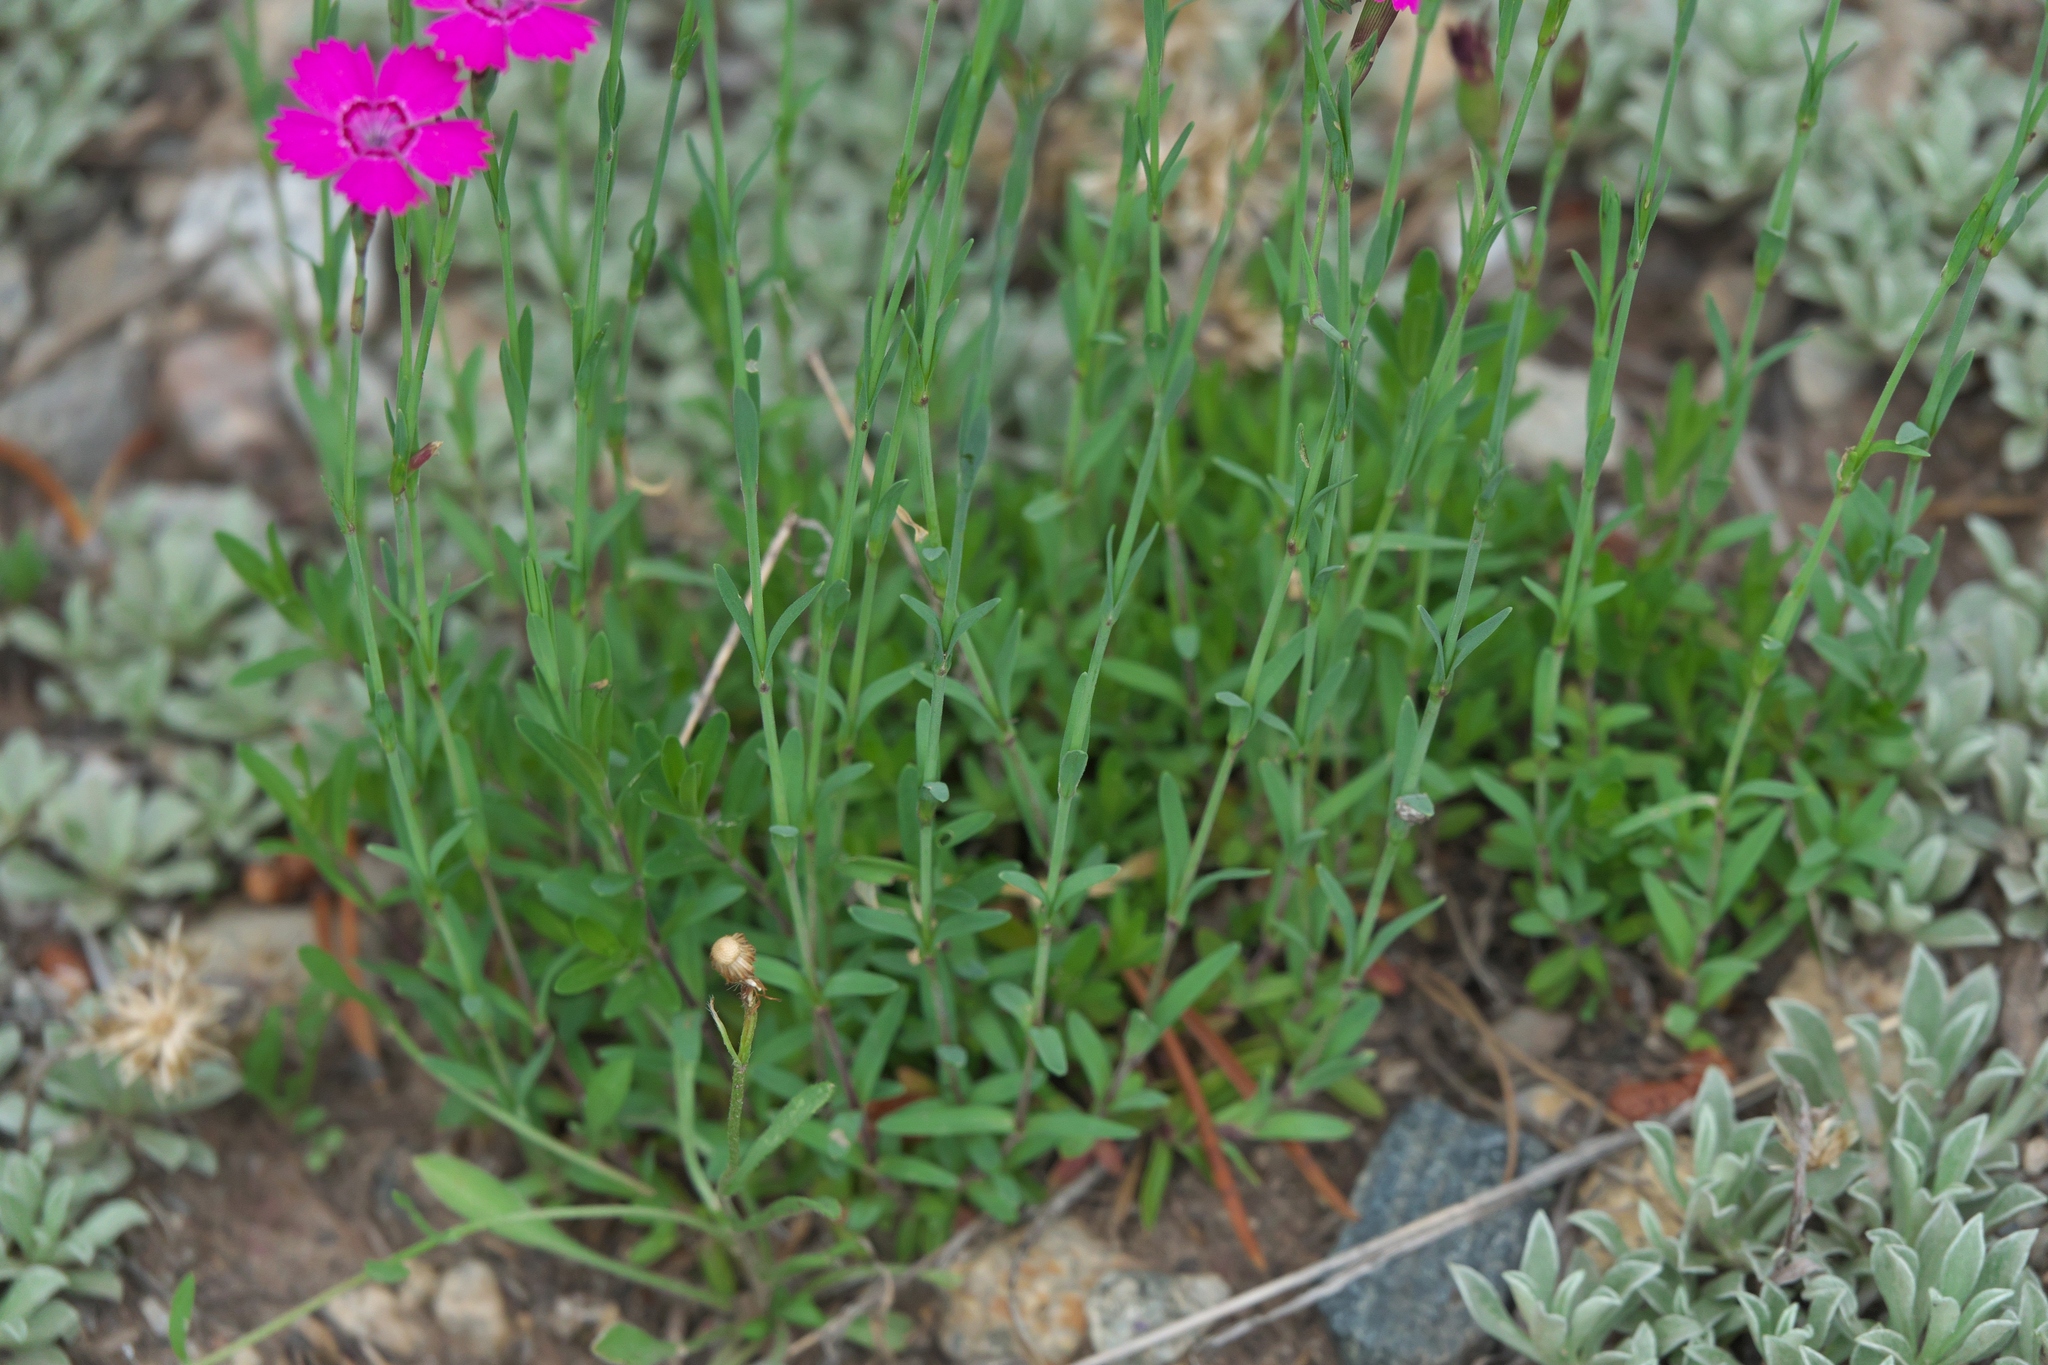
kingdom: Plantae
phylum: Tracheophyta
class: Magnoliopsida
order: Caryophyllales
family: Caryophyllaceae
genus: Dianthus
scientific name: Dianthus deltoides
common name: Maiden pink
